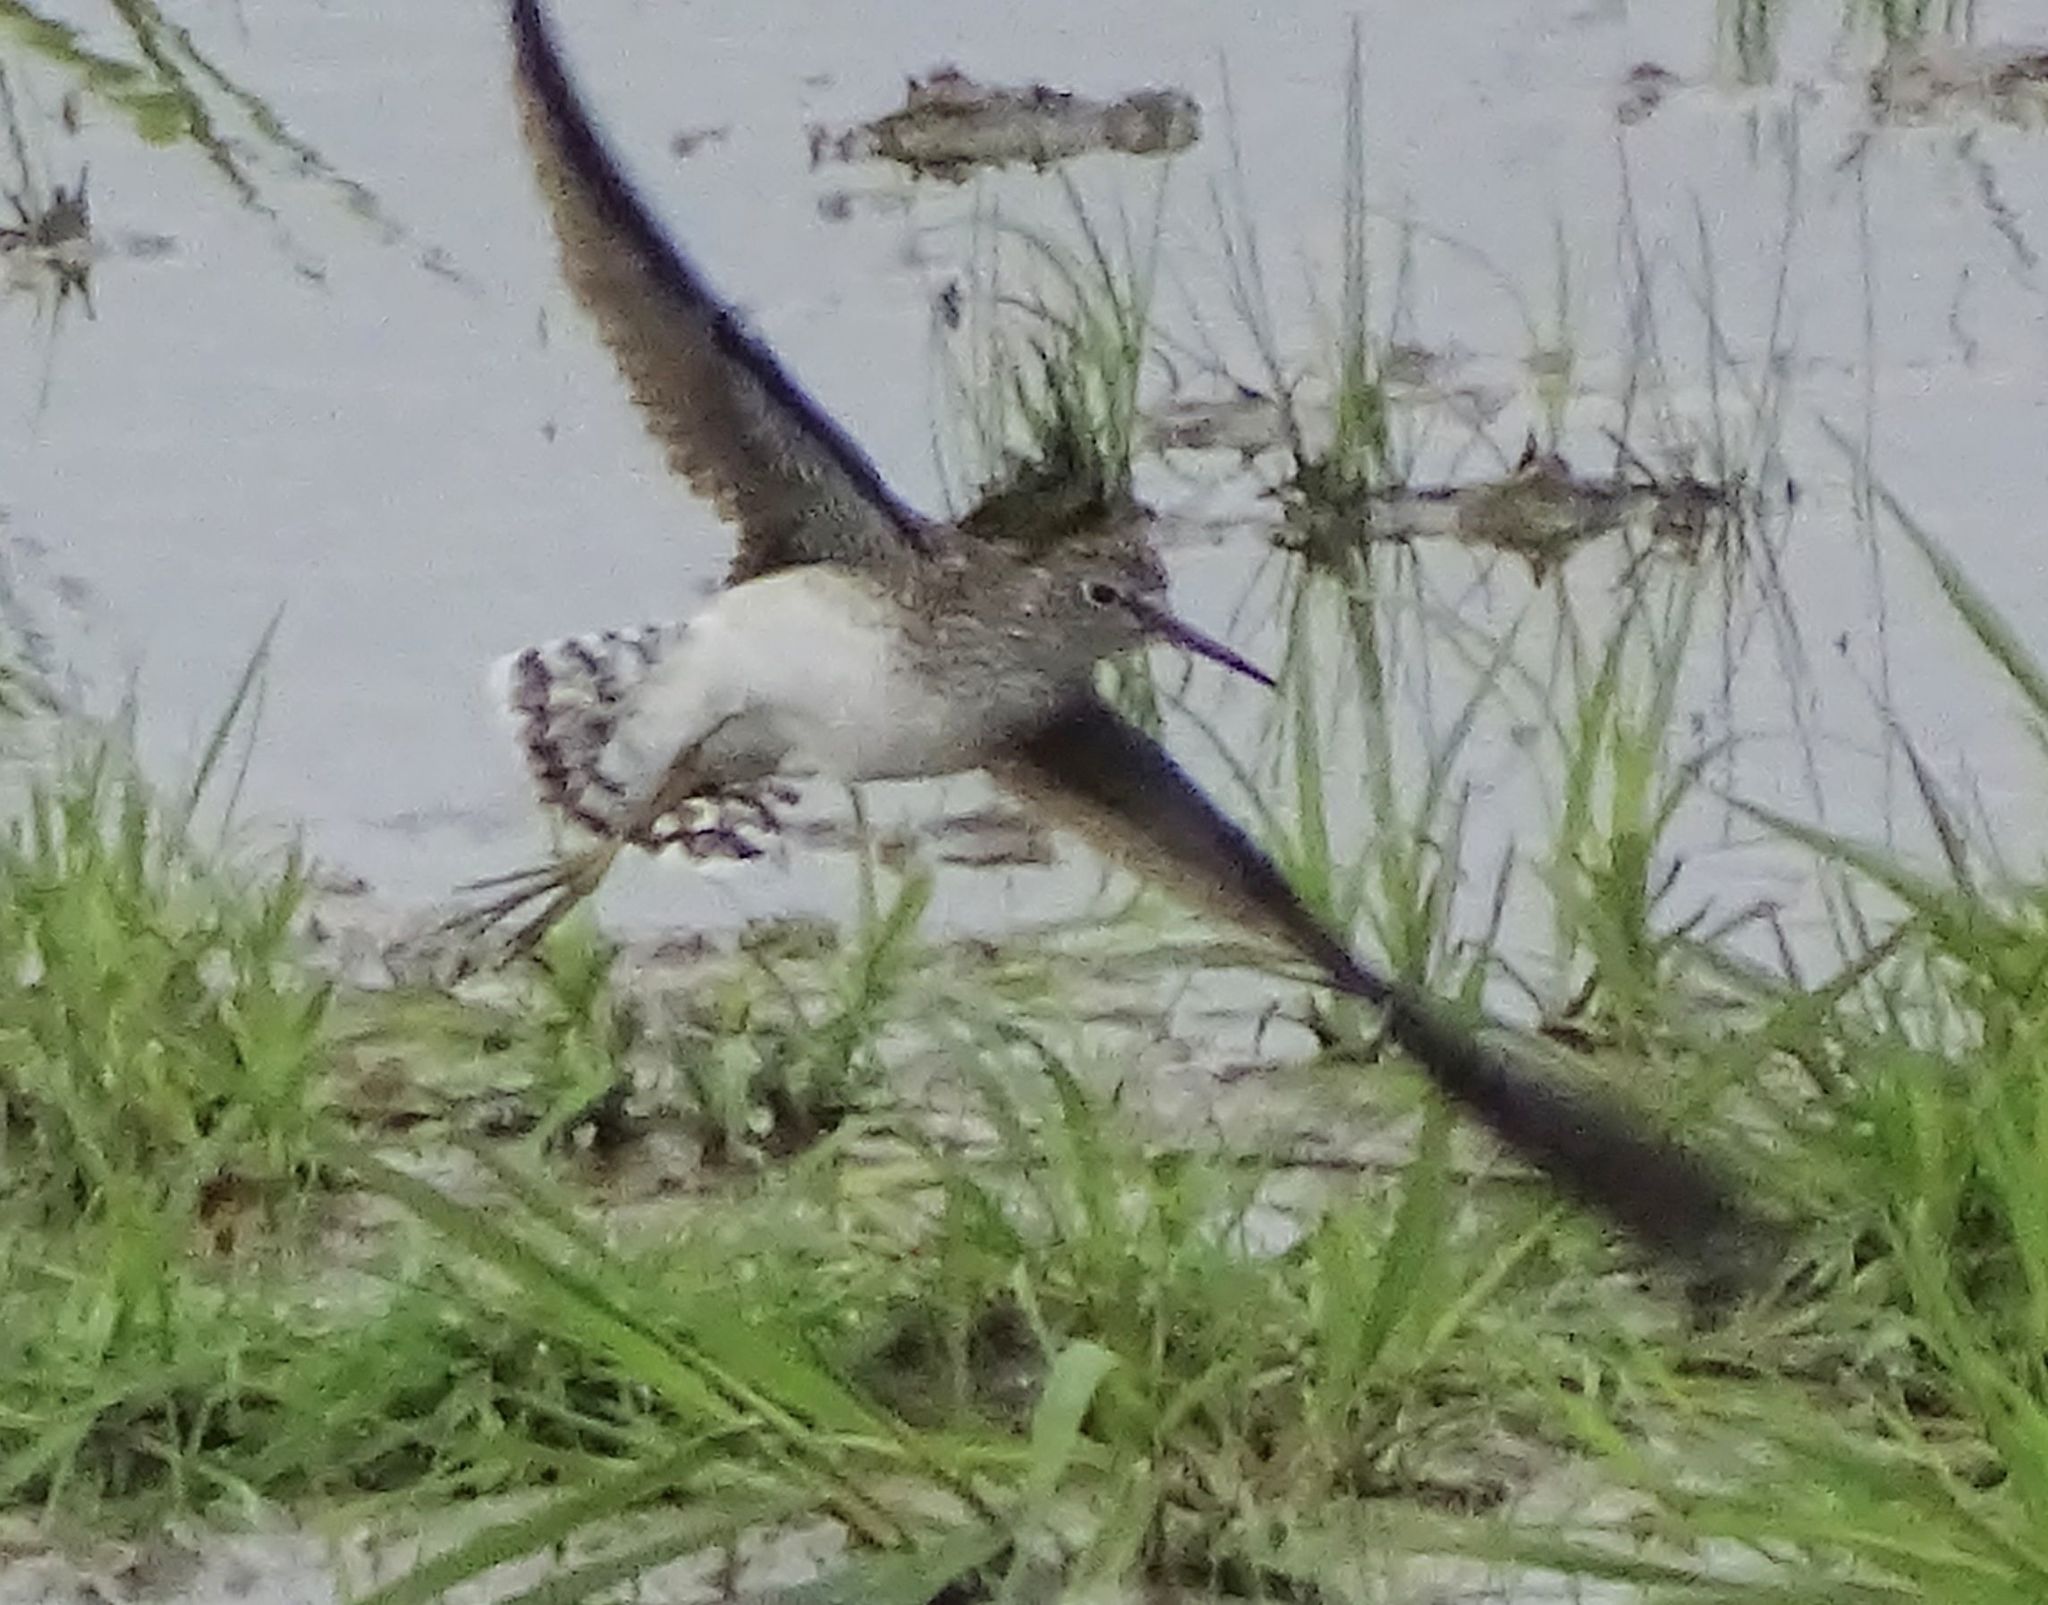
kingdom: Animalia
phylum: Chordata
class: Aves
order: Charadriiformes
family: Scolopacidae
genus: Tringa
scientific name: Tringa solitaria
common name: Solitary sandpiper
